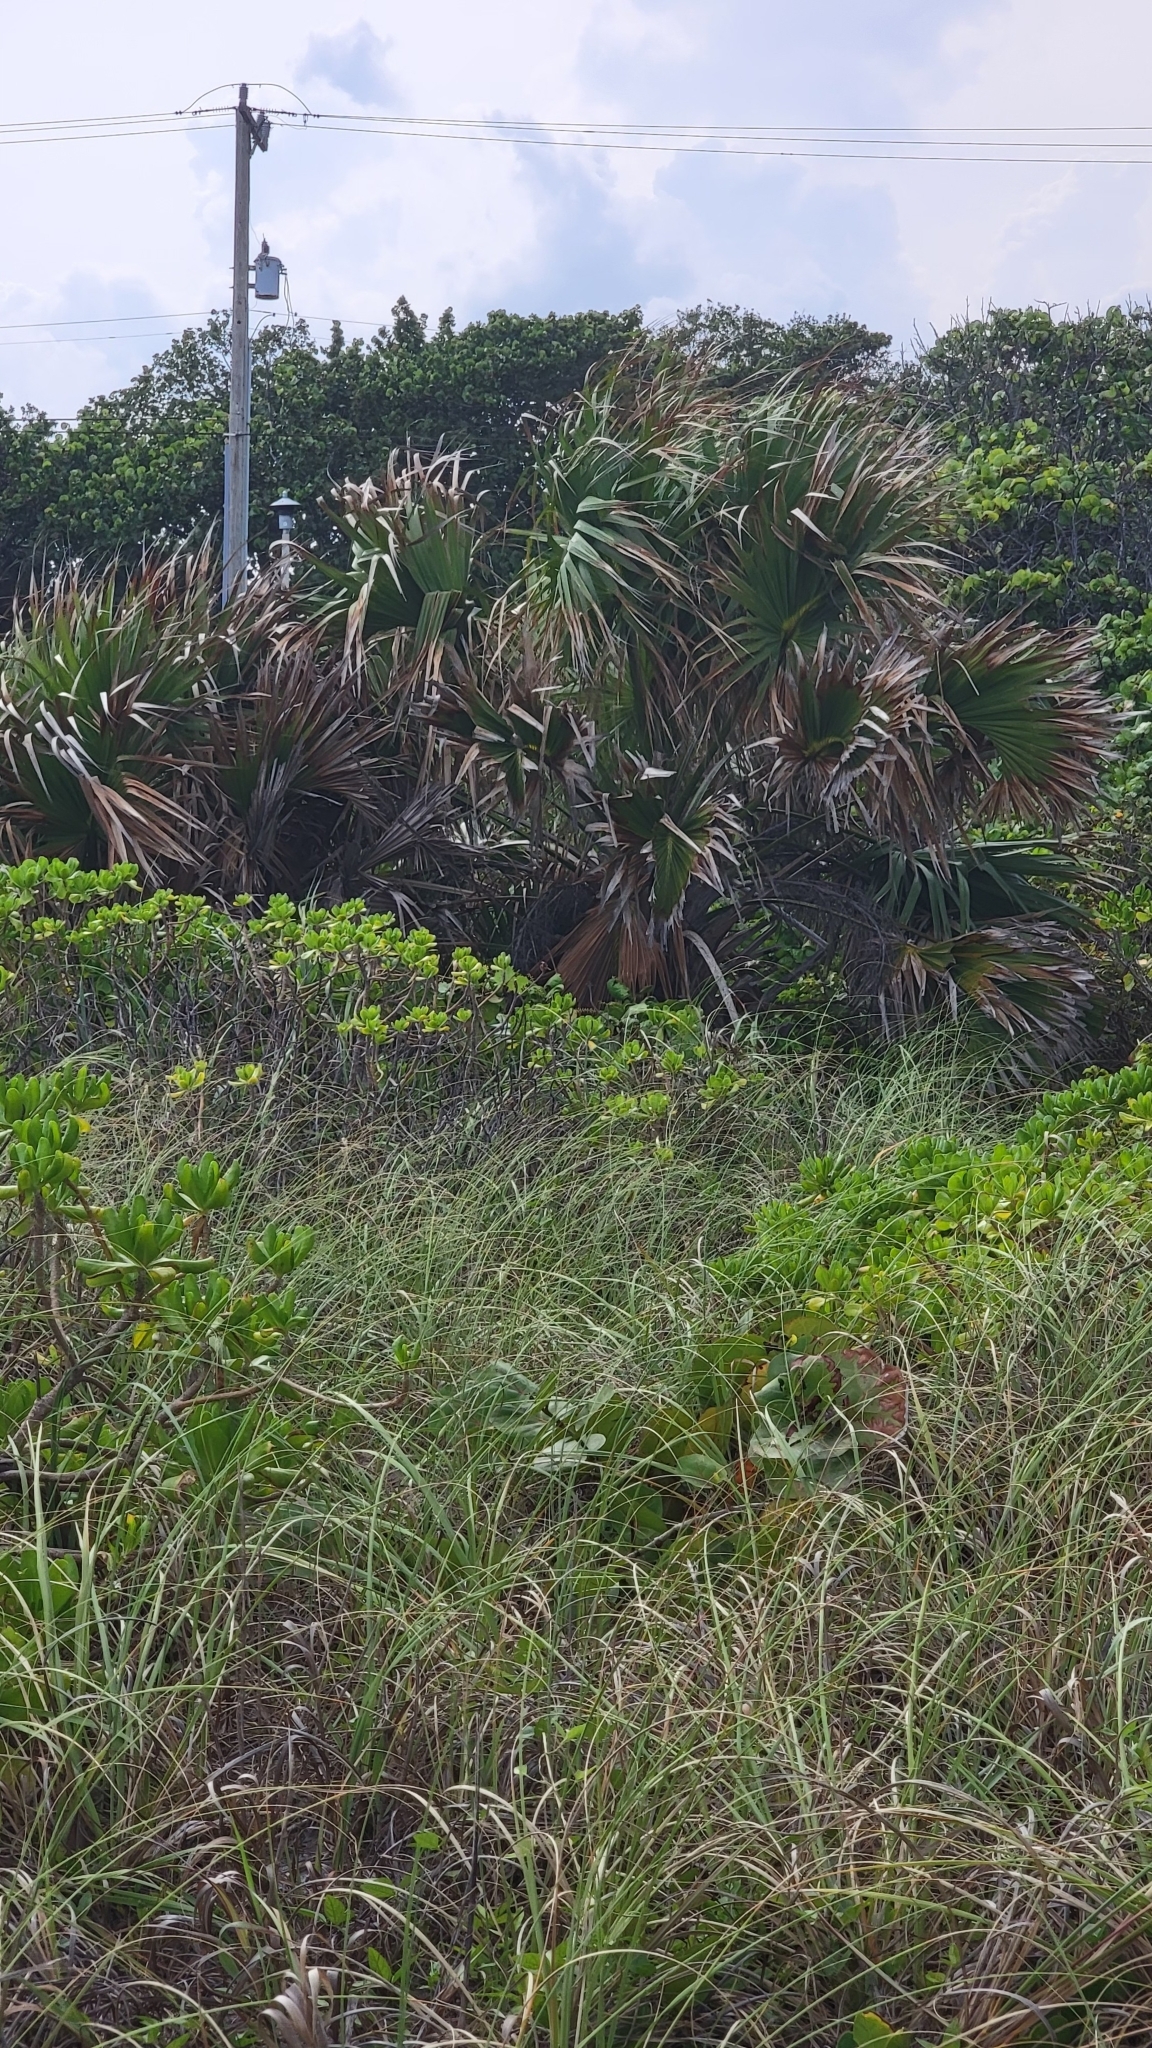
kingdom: Plantae
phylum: Tracheophyta
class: Liliopsida
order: Arecales
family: Arecaceae
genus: Sabal
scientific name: Sabal palmetto
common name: Blue palmetto
